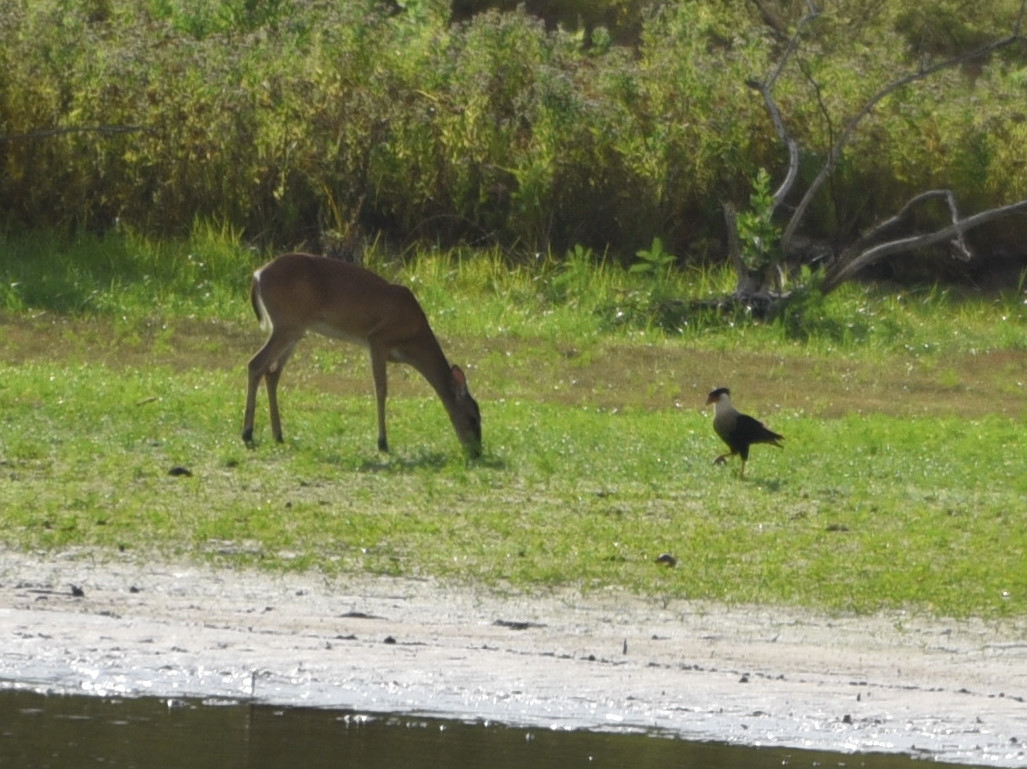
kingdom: Animalia
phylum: Chordata
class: Aves
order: Falconiformes
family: Falconidae
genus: Caracara
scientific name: Caracara plancus
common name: Southern caracara
